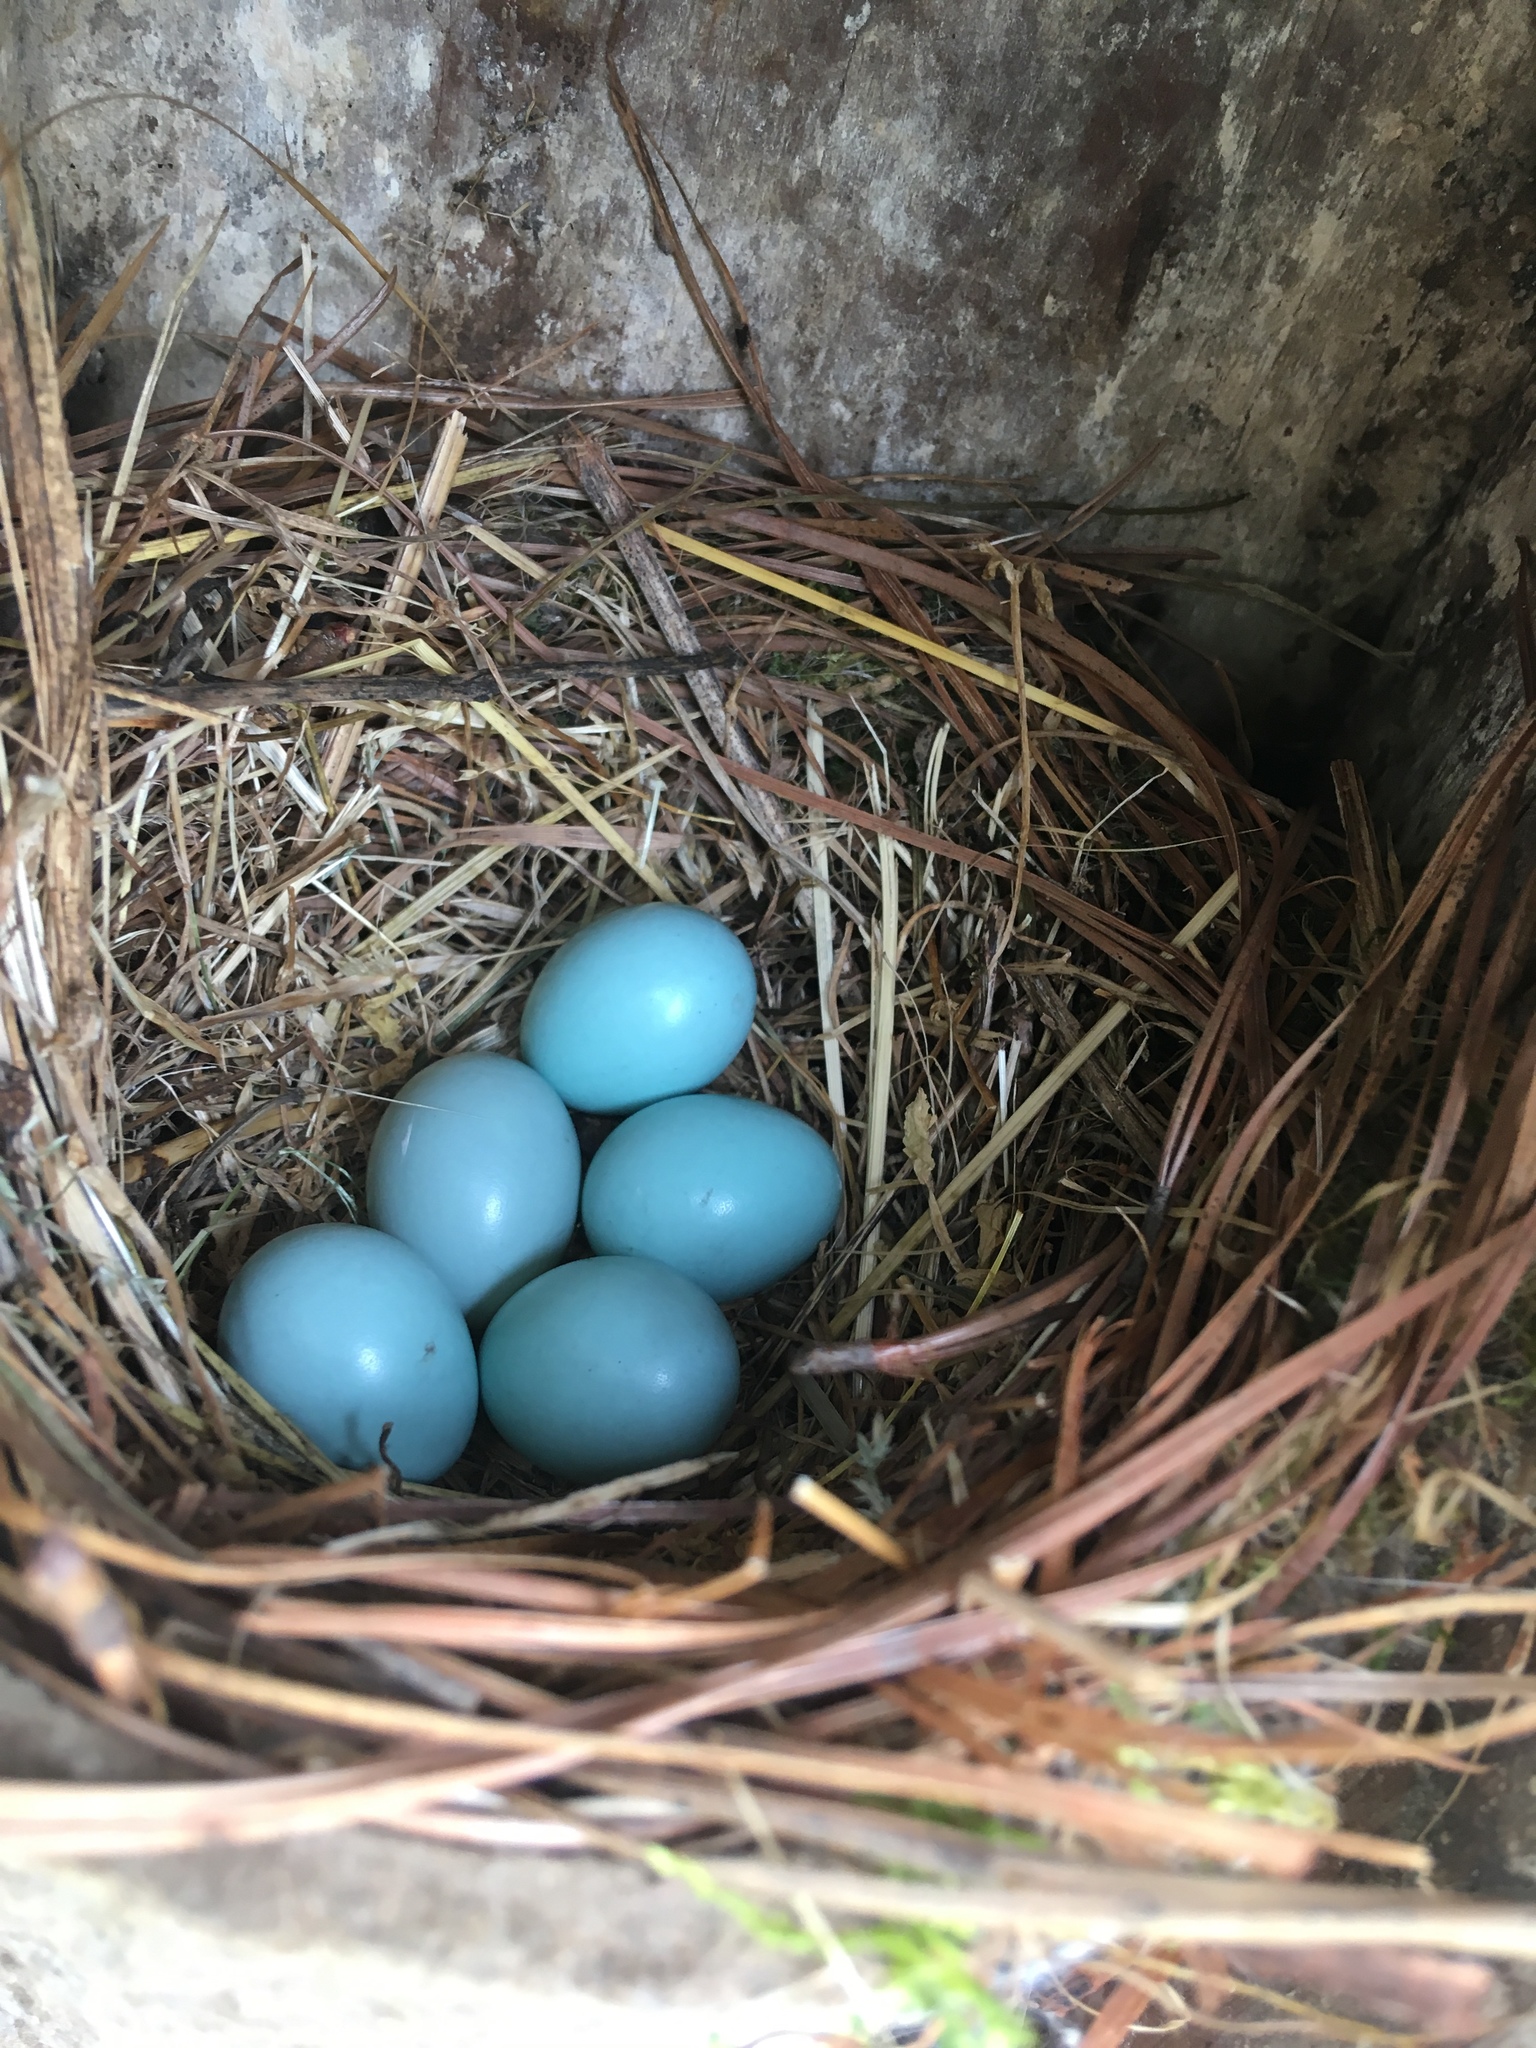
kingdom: Animalia
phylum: Chordata
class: Aves
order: Passeriformes
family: Turdidae
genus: Sialia
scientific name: Sialia sialis
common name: Eastern bluebird
